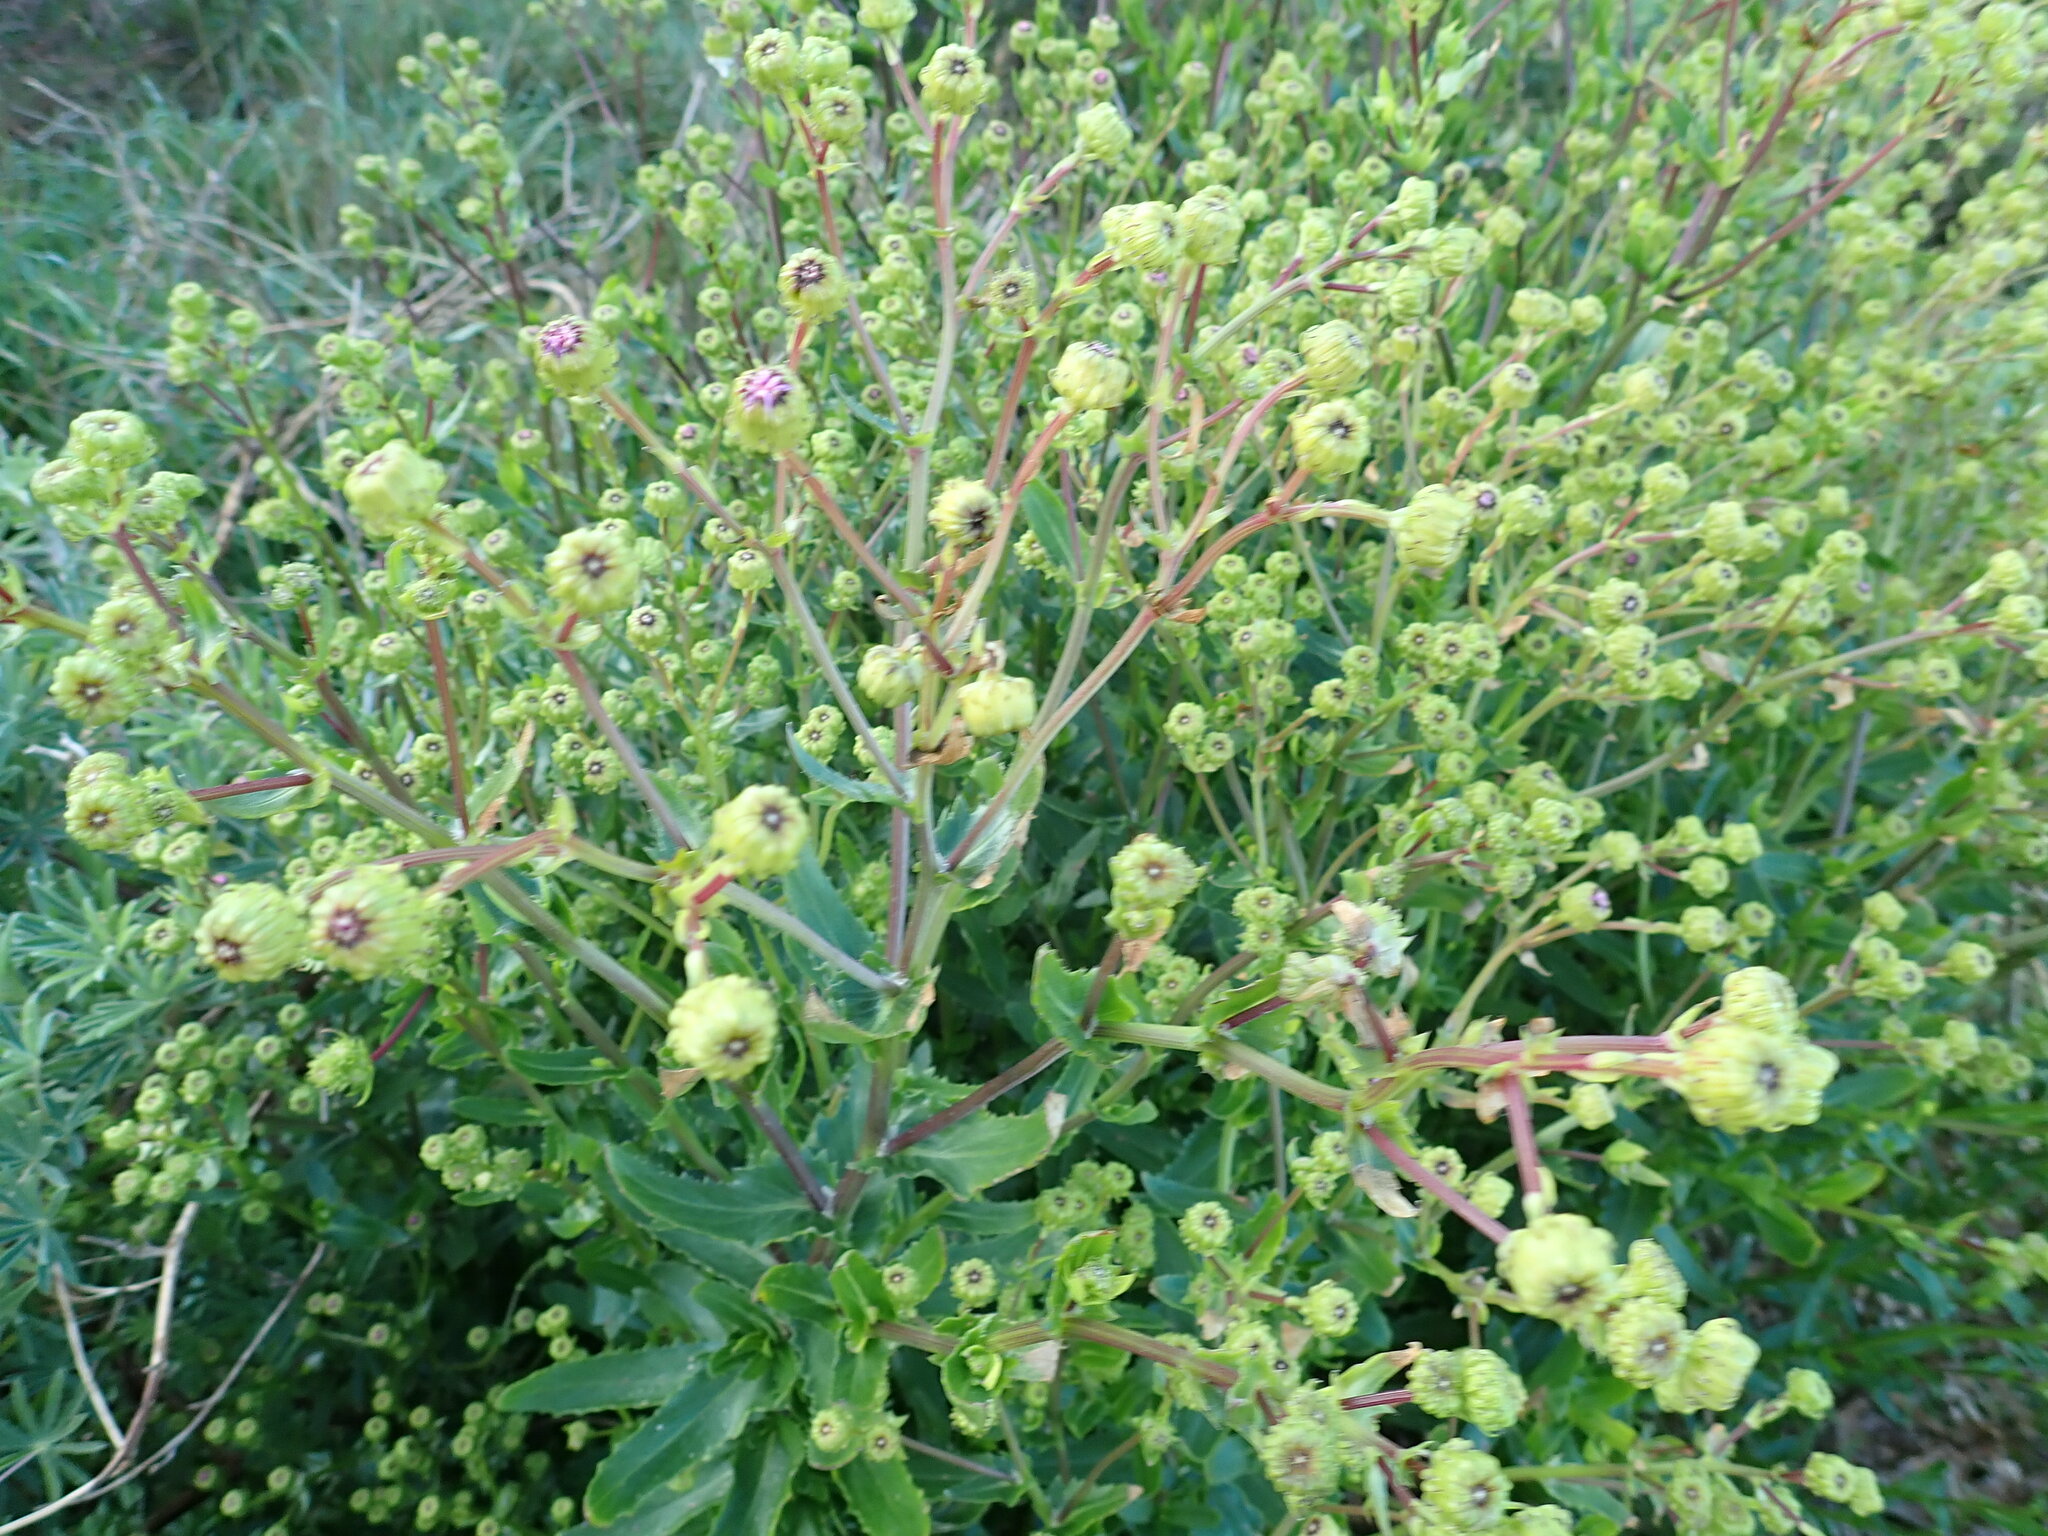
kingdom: Plantae
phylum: Tracheophyta
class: Magnoliopsida
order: Asterales
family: Asteraceae
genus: Senecio
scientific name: Senecio glastifolius
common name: Woad-leaved ragwort
